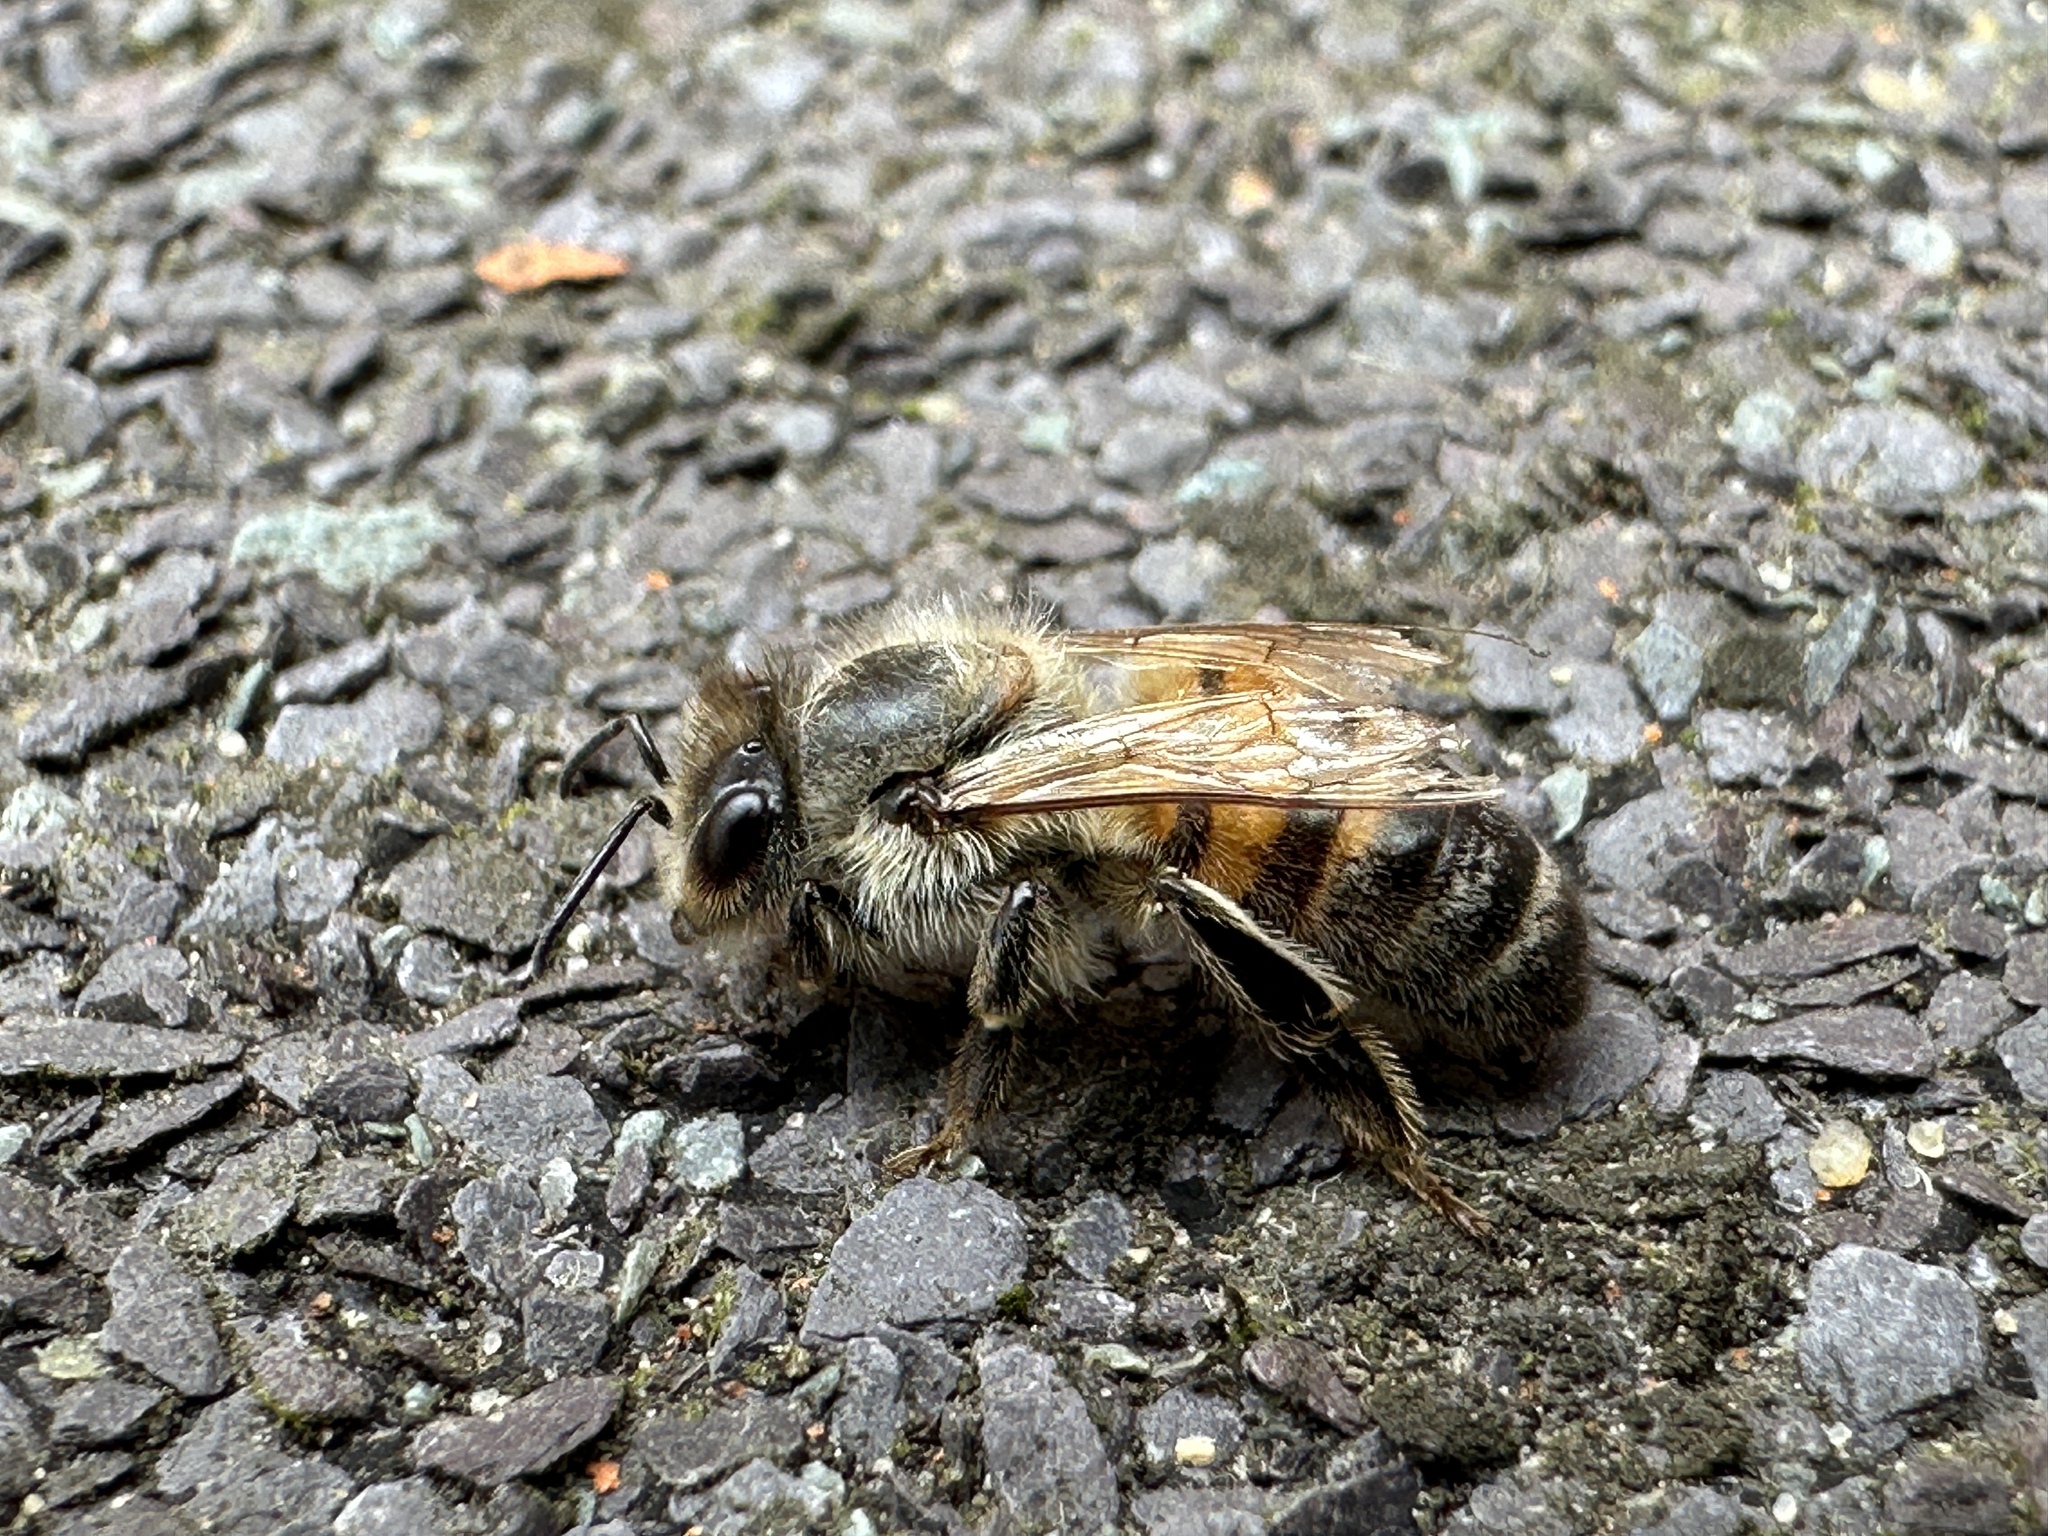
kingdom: Animalia
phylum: Arthropoda
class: Insecta
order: Hymenoptera
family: Apidae
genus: Apis
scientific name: Apis mellifera
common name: Honey bee
